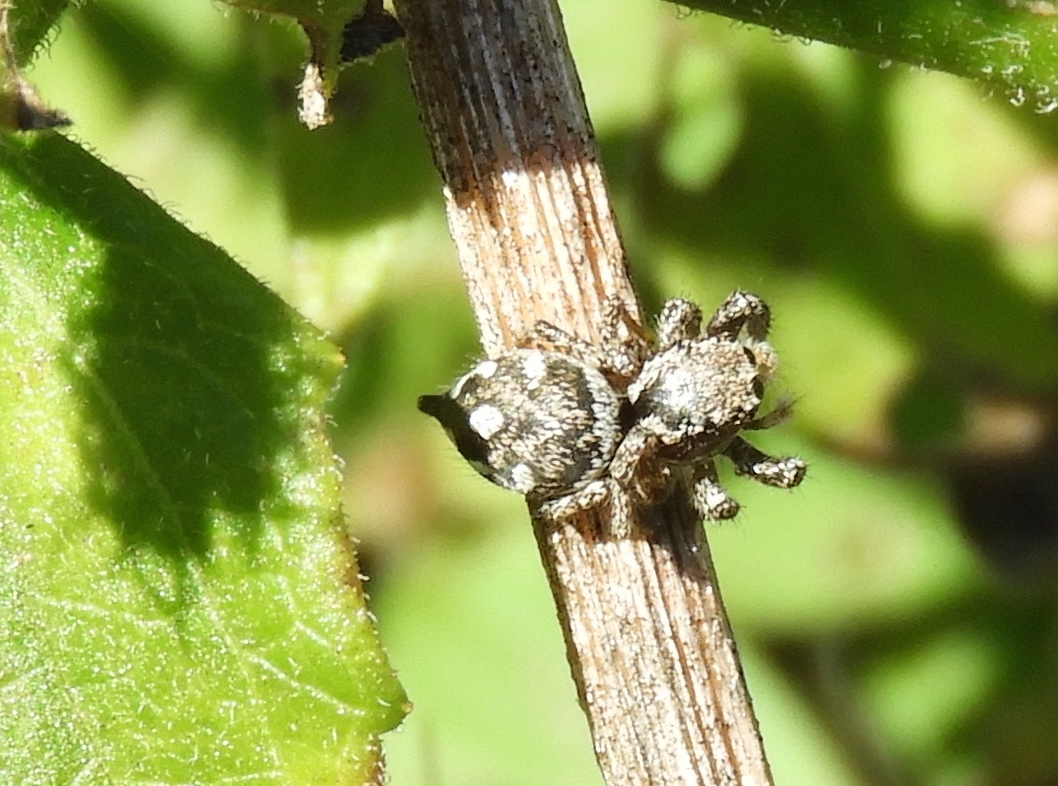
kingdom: Animalia
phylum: Arthropoda
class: Arachnida
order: Araneae
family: Salticidae
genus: Habronattus
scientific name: Habronattus
